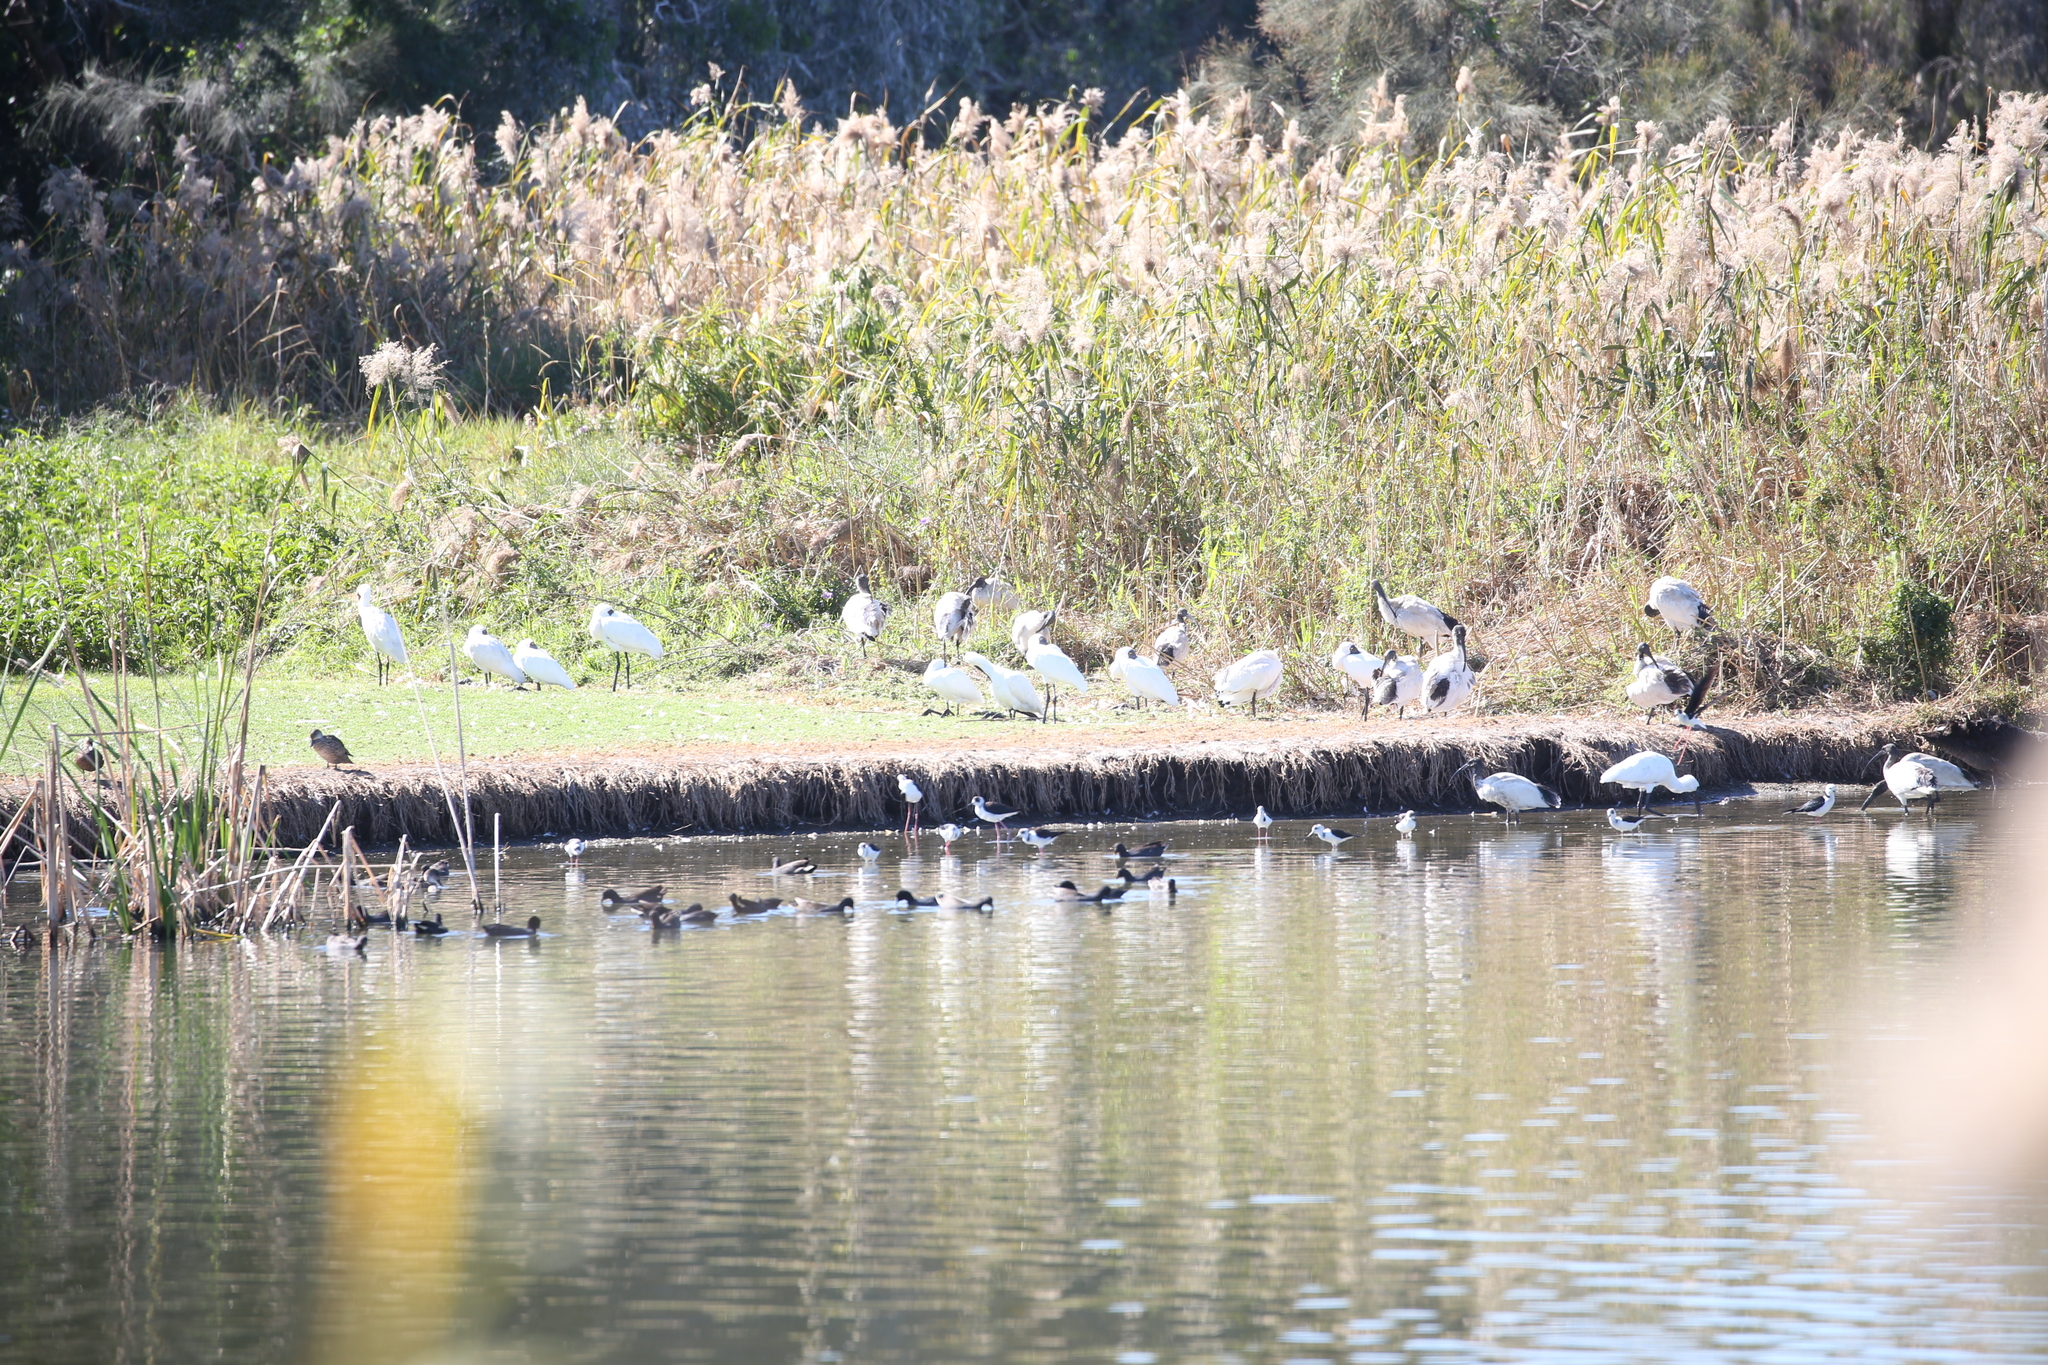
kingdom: Animalia
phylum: Chordata
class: Aves
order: Charadriiformes
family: Recurvirostridae
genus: Himantopus
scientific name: Himantopus leucocephalus
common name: White-headed stilt
